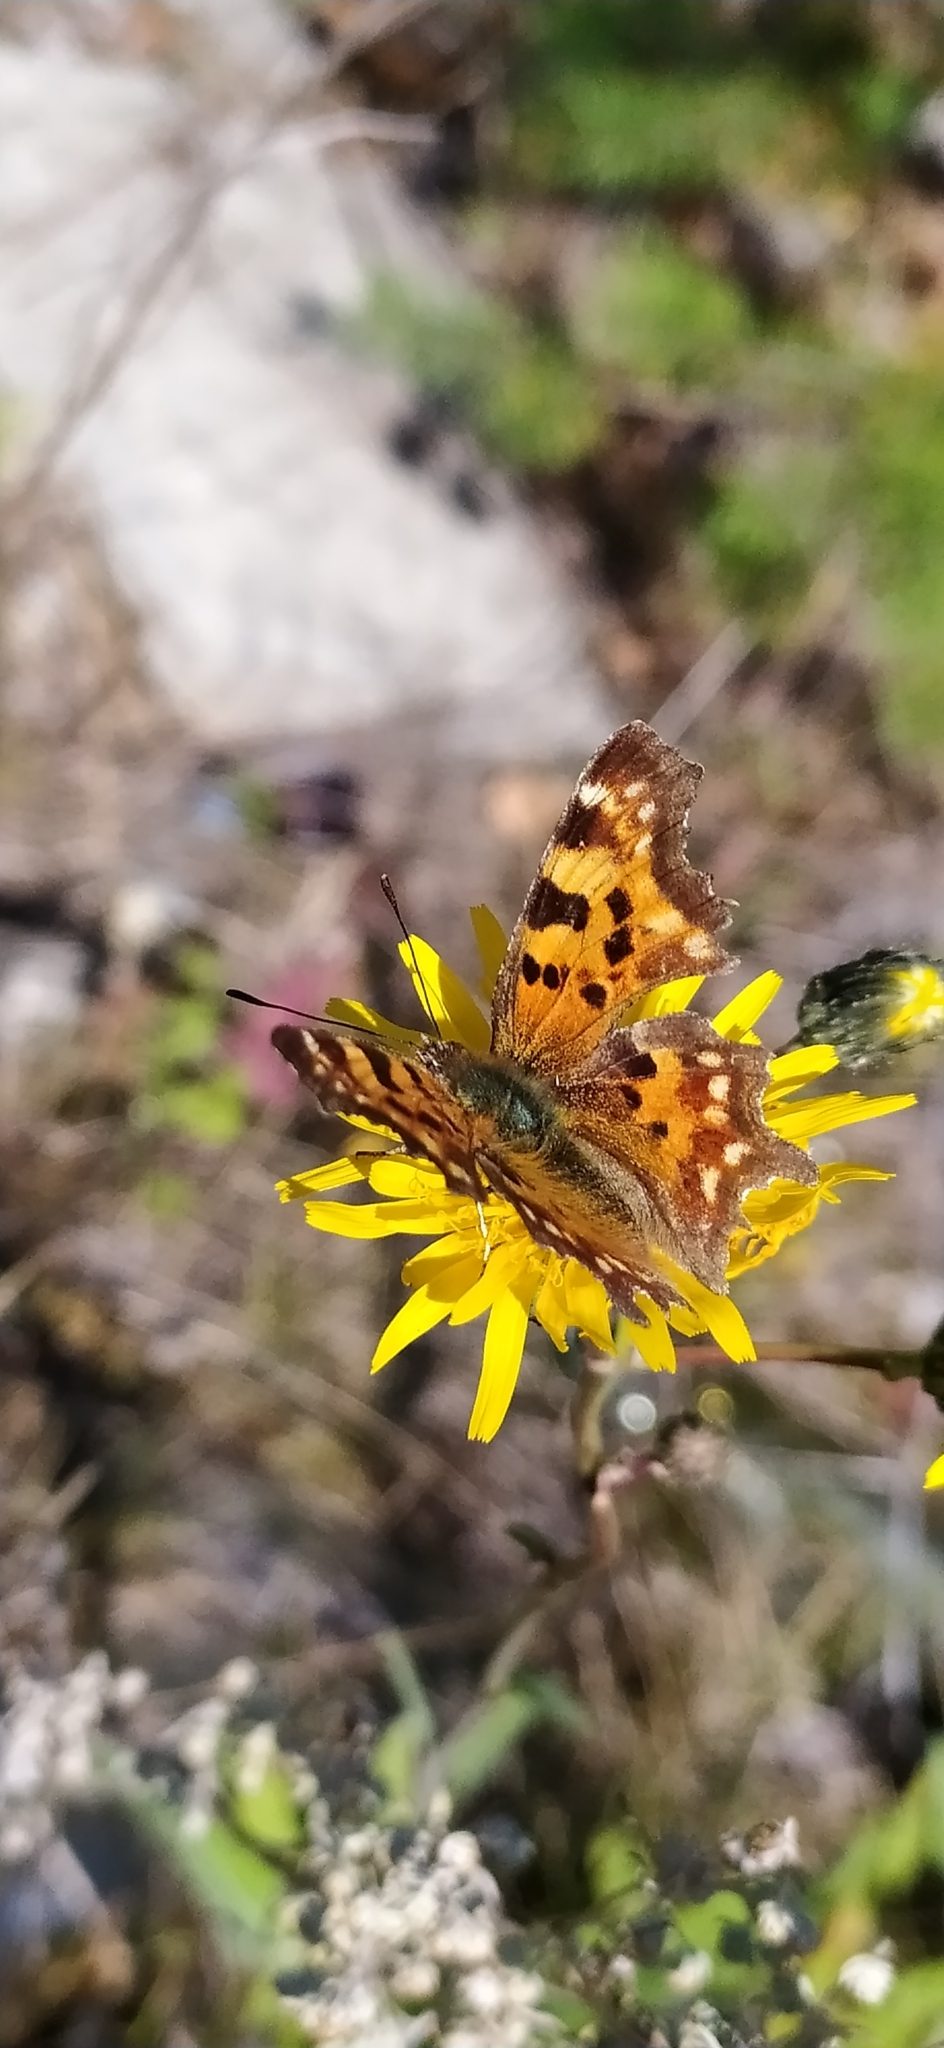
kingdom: Animalia
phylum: Arthropoda
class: Insecta
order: Lepidoptera
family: Nymphalidae
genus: Polygonia
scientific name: Polygonia c-album
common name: Comma
